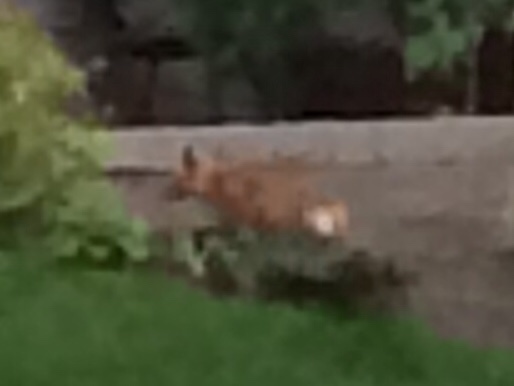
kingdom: Animalia
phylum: Chordata
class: Mammalia
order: Carnivora
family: Canidae
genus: Vulpes
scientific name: Vulpes vulpes
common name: Red fox
